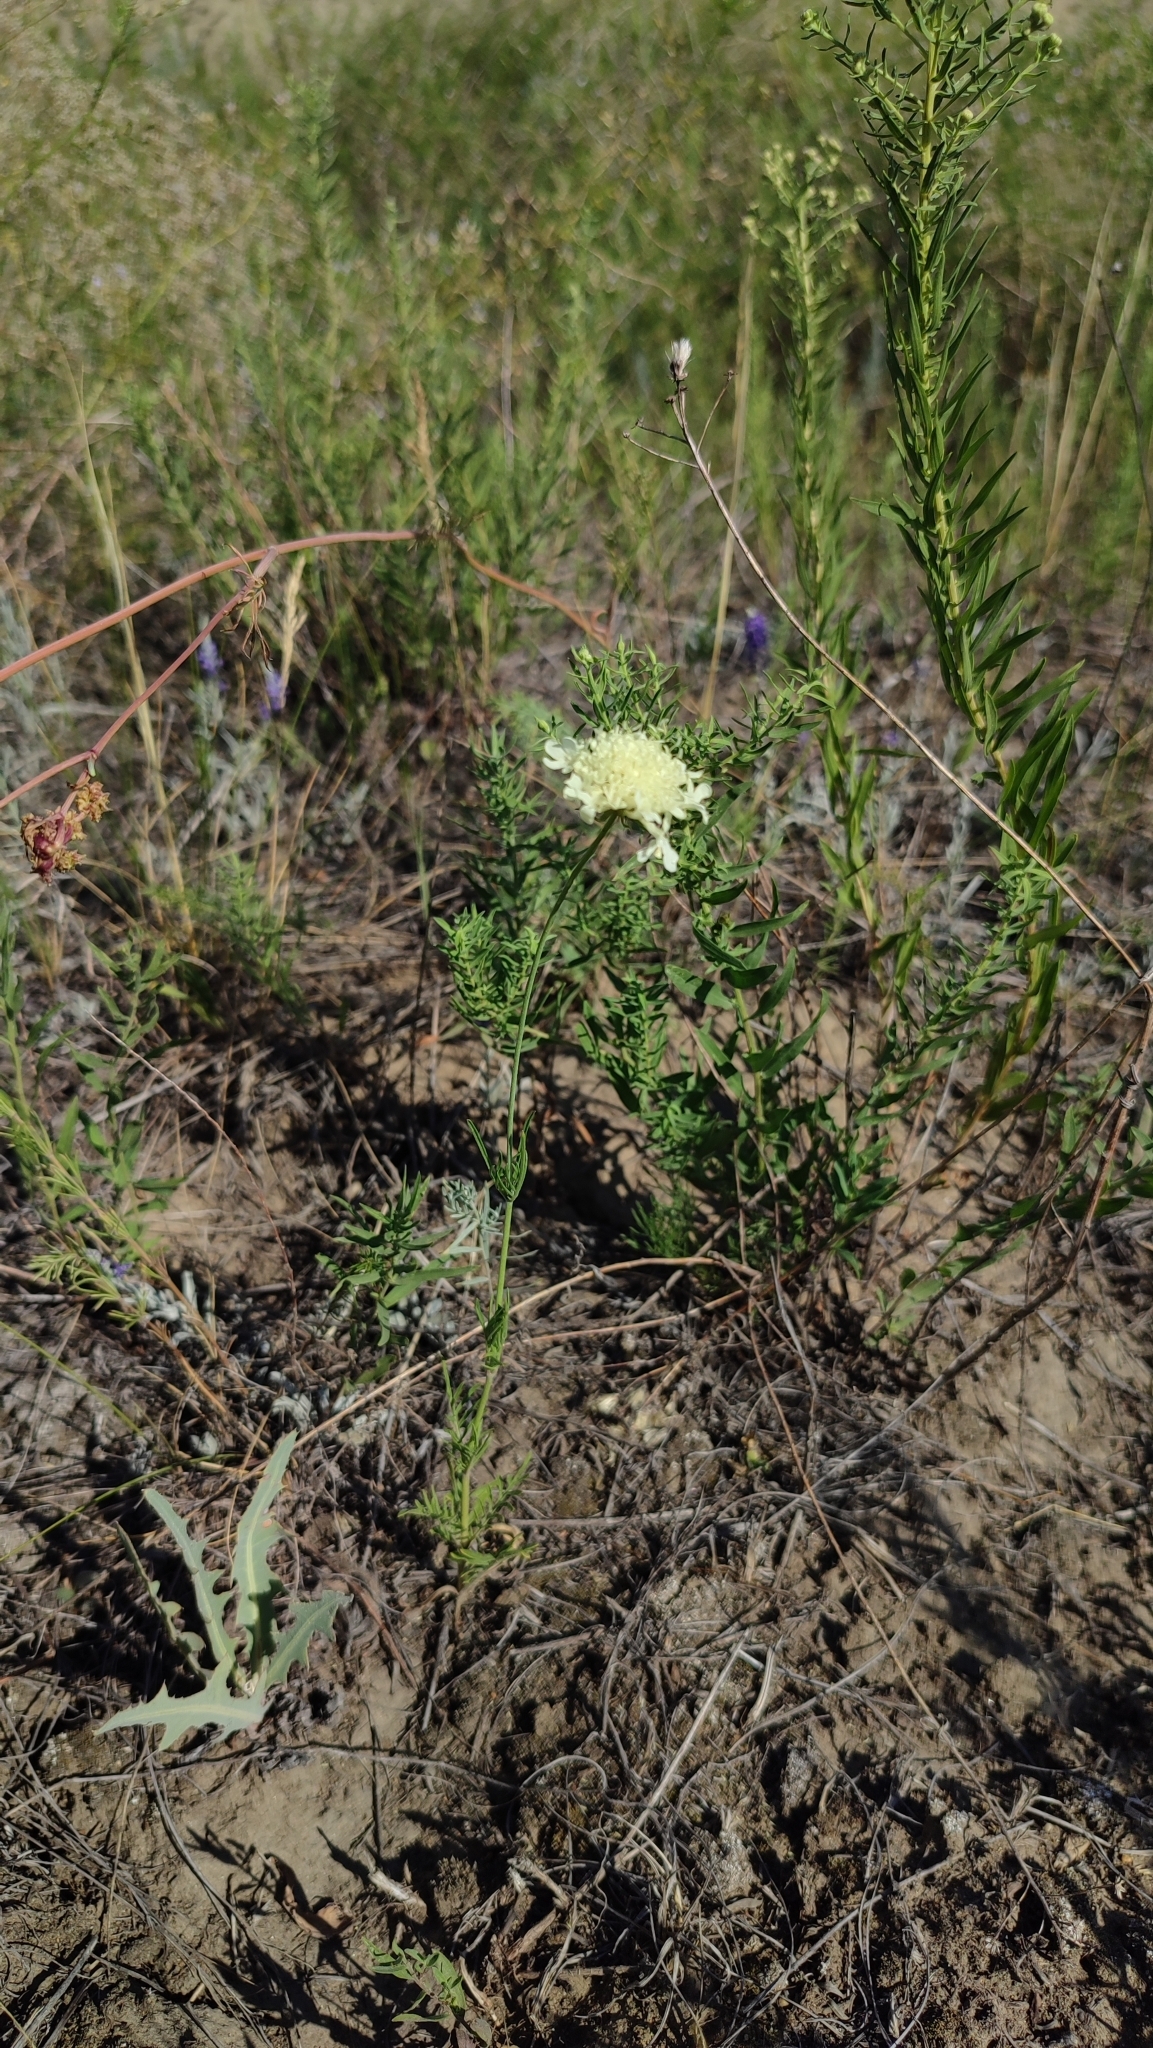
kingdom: Plantae
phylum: Tracheophyta
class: Magnoliopsida
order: Dipsacales
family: Caprifoliaceae
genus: Scabiosa
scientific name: Scabiosa ochroleuca
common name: Cream pincushions
